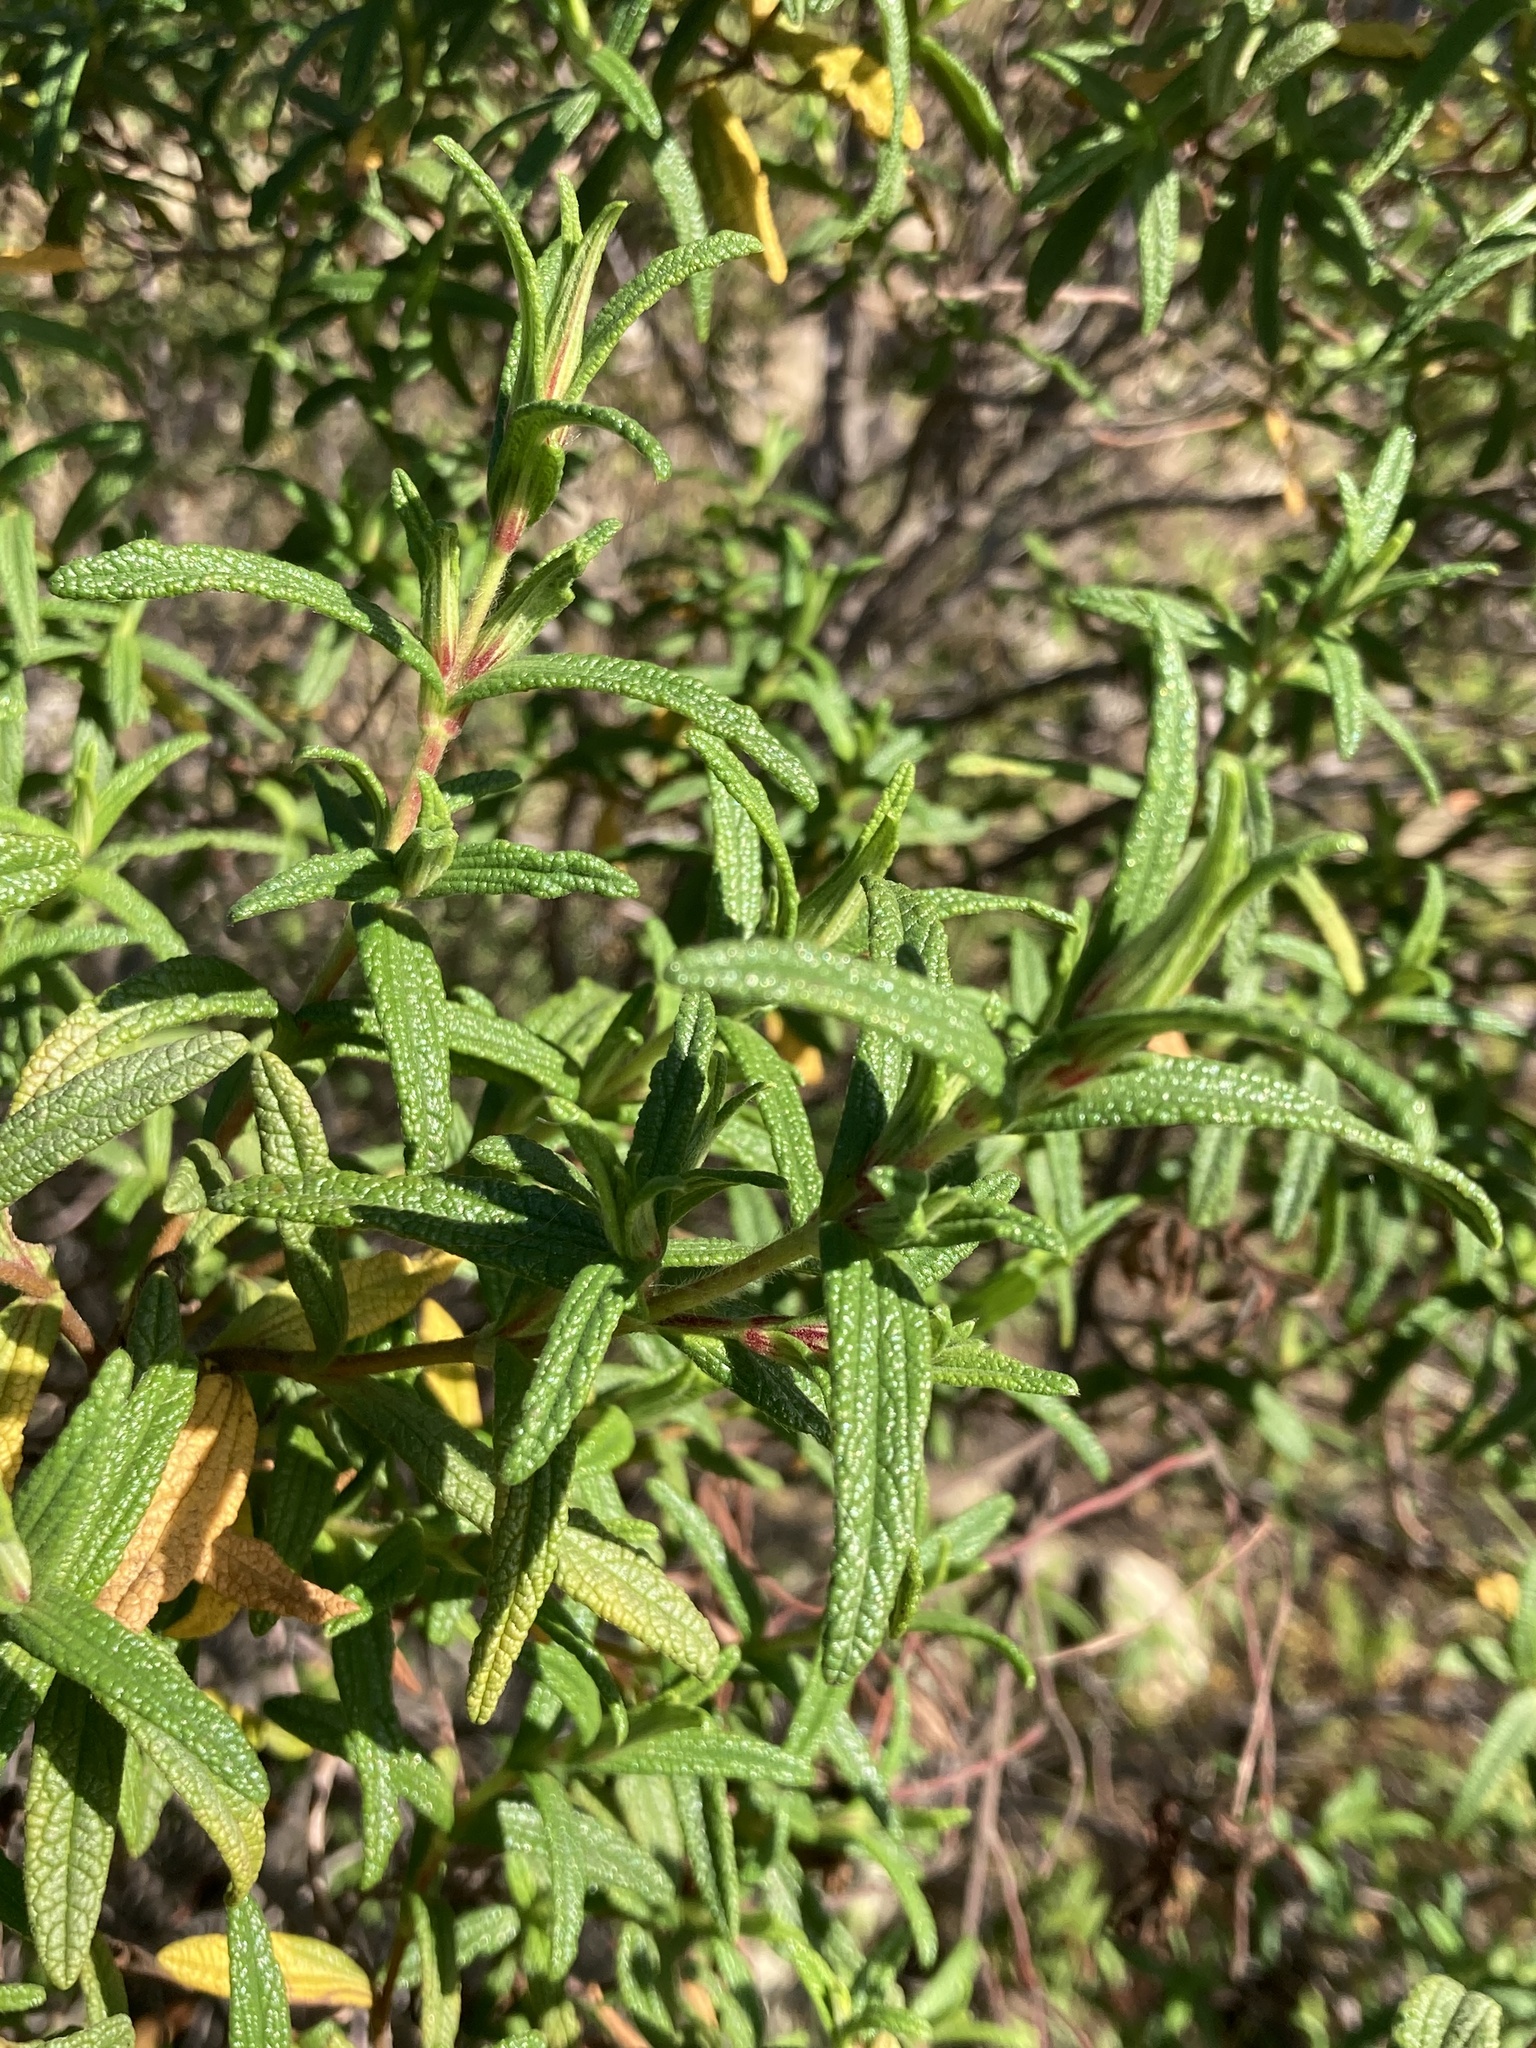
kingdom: Plantae
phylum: Tracheophyta
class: Magnoliopsida
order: Malvales
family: Cistaceae
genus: Cistus
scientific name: Cistus monspeliensis
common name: Montpelier cistus
